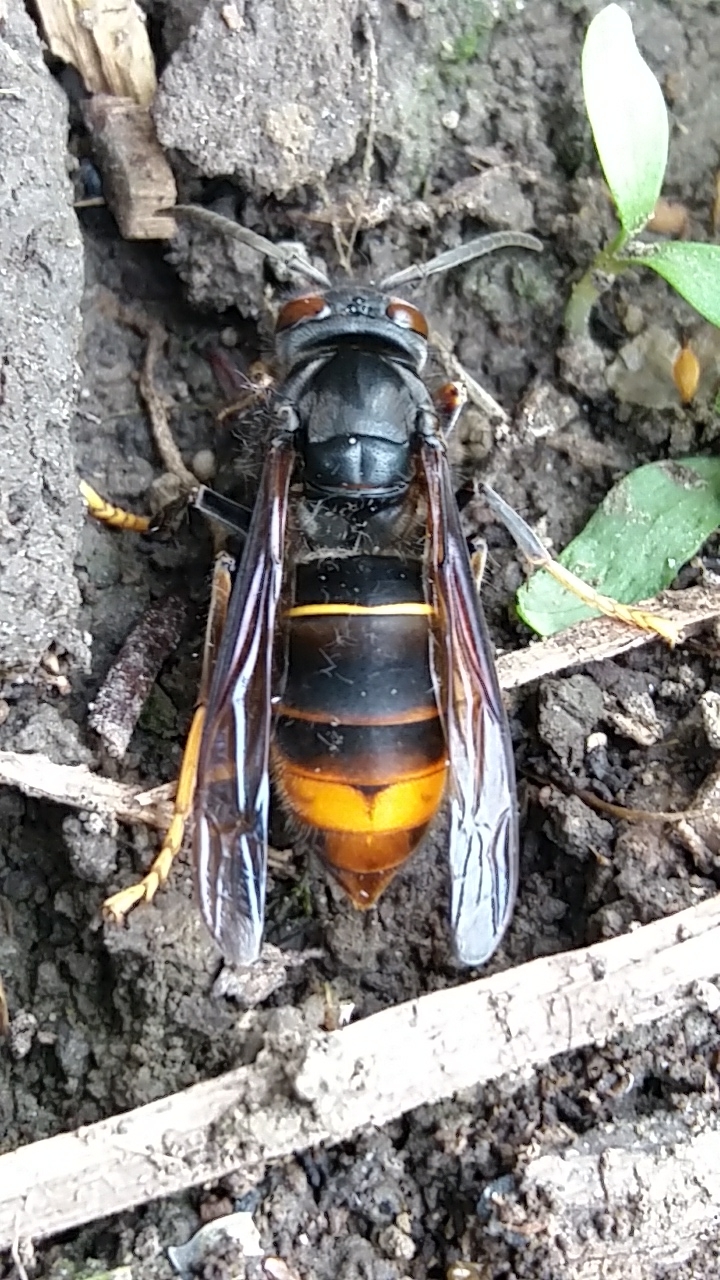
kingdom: Animalia
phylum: Arthropoda
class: Insecta
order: Hymenoptera
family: Vespidae
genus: Vespa
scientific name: Vespa velutina
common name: Asian hornet
